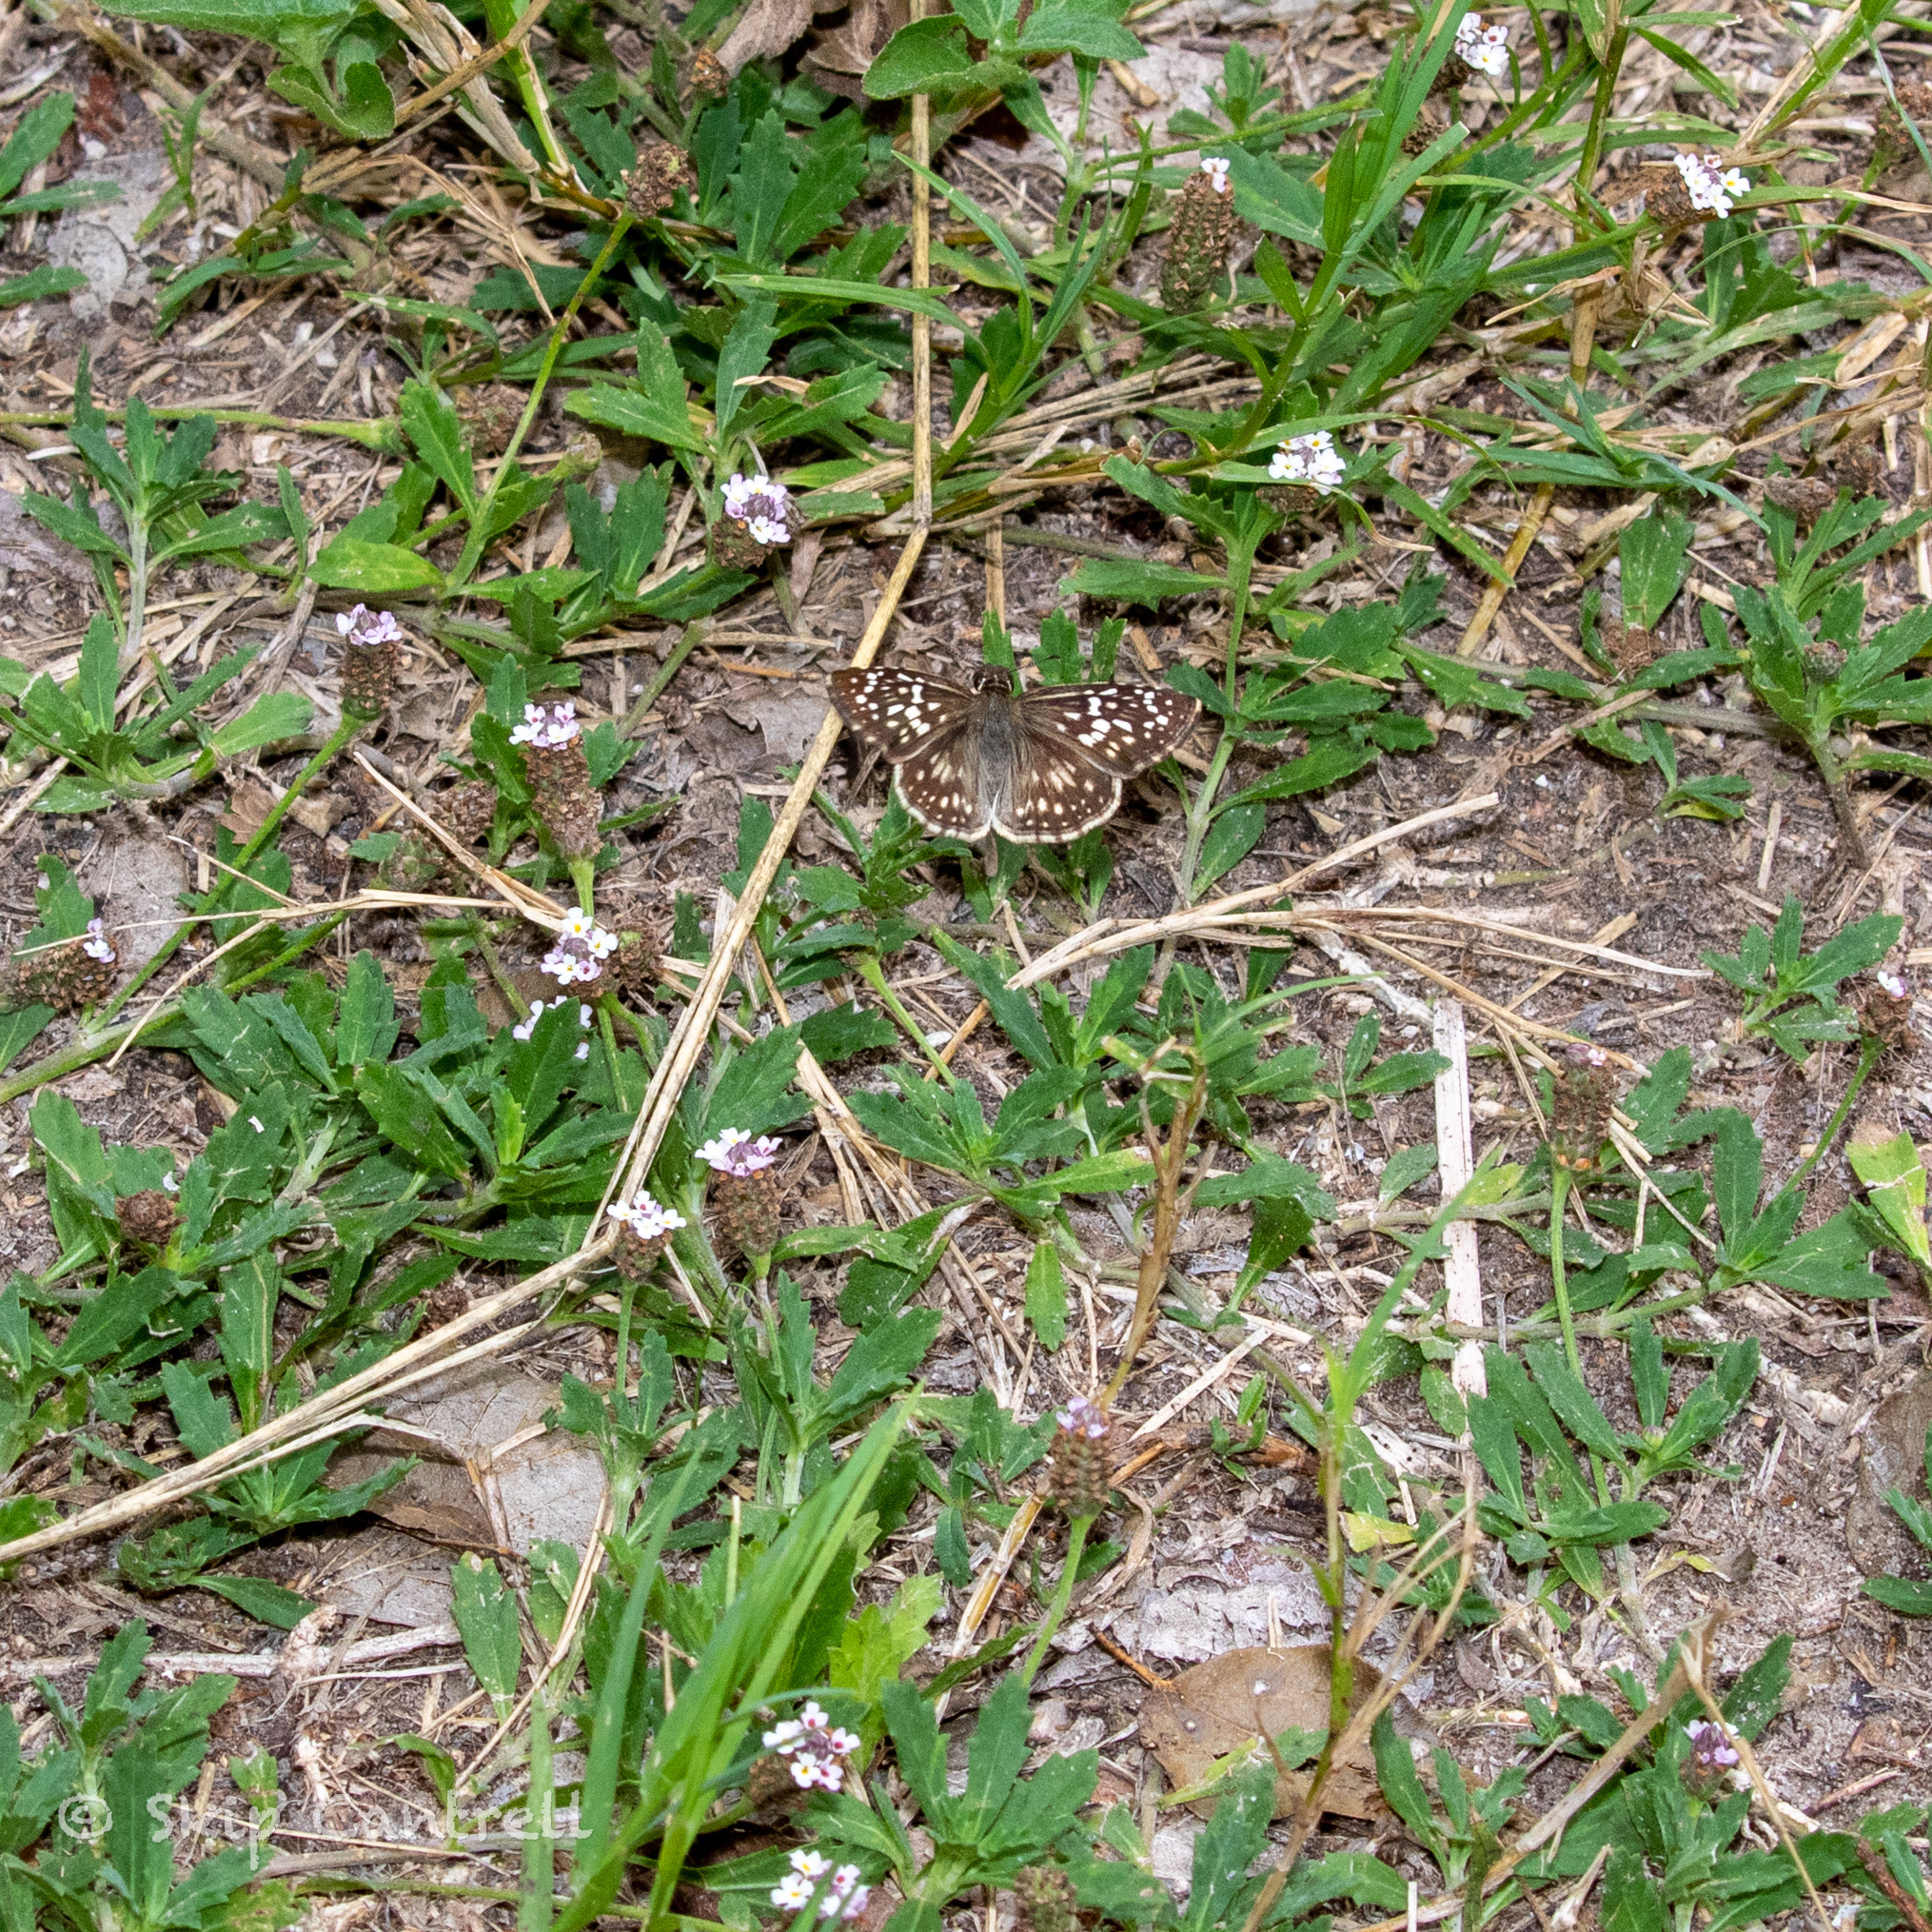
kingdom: Animalia
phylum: Arthropoda
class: Insecta
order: Lepidoptera
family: Hesperiidae
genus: Pyrgus
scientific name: Pyrgus oileus
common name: Tropical checkered-skipper
